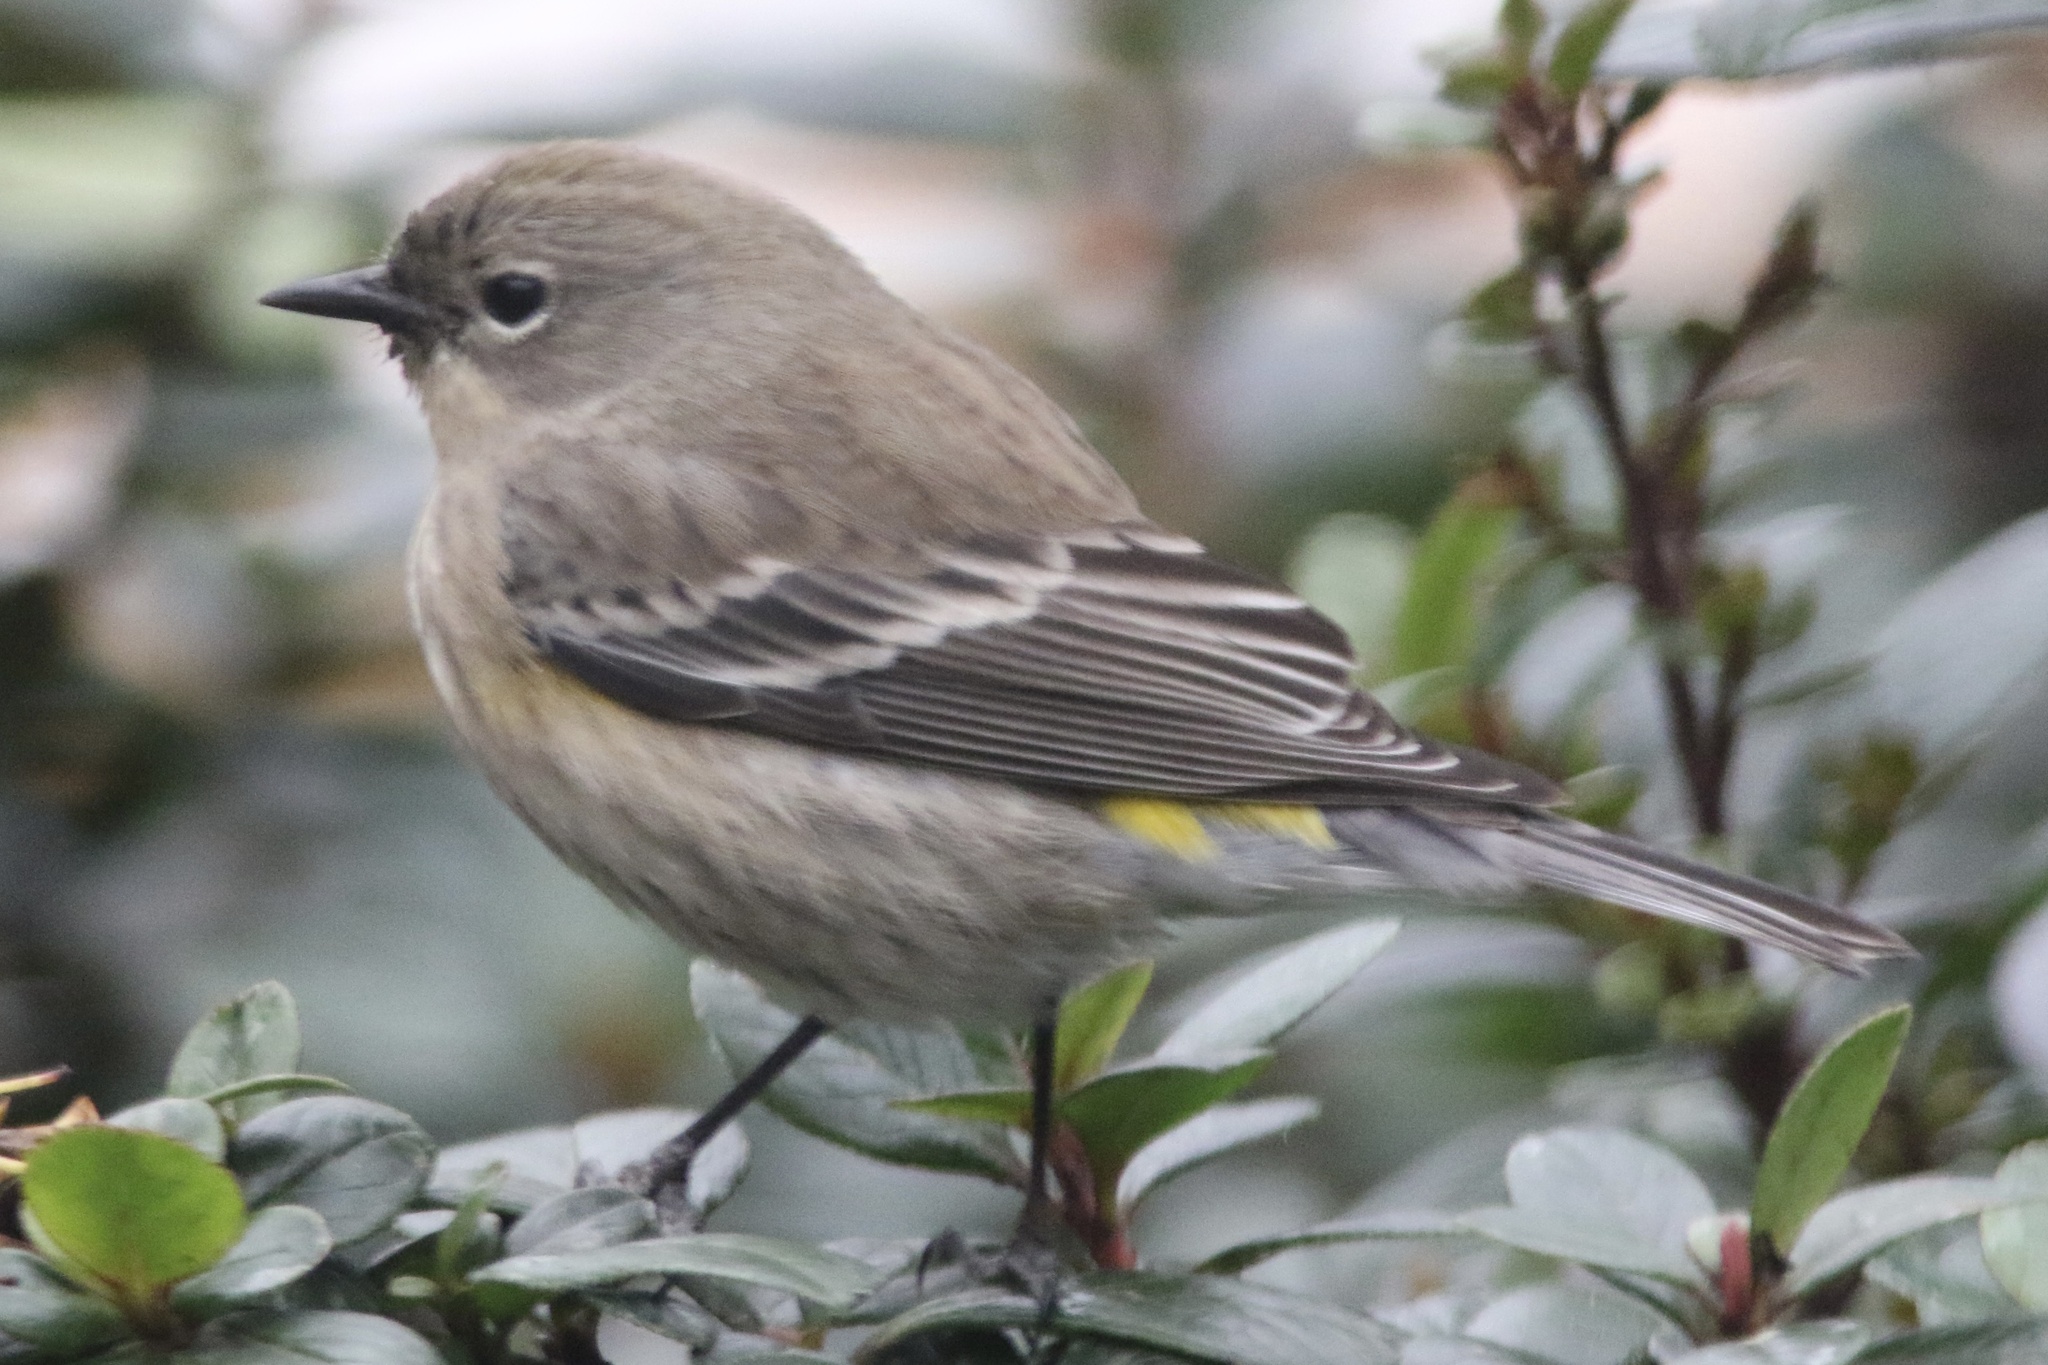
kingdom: Animalia
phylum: Chordata
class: Aves
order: Passeriformes
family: Parulidae
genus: Setophaga
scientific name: Setophaga coronata
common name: Myrtle warbler
